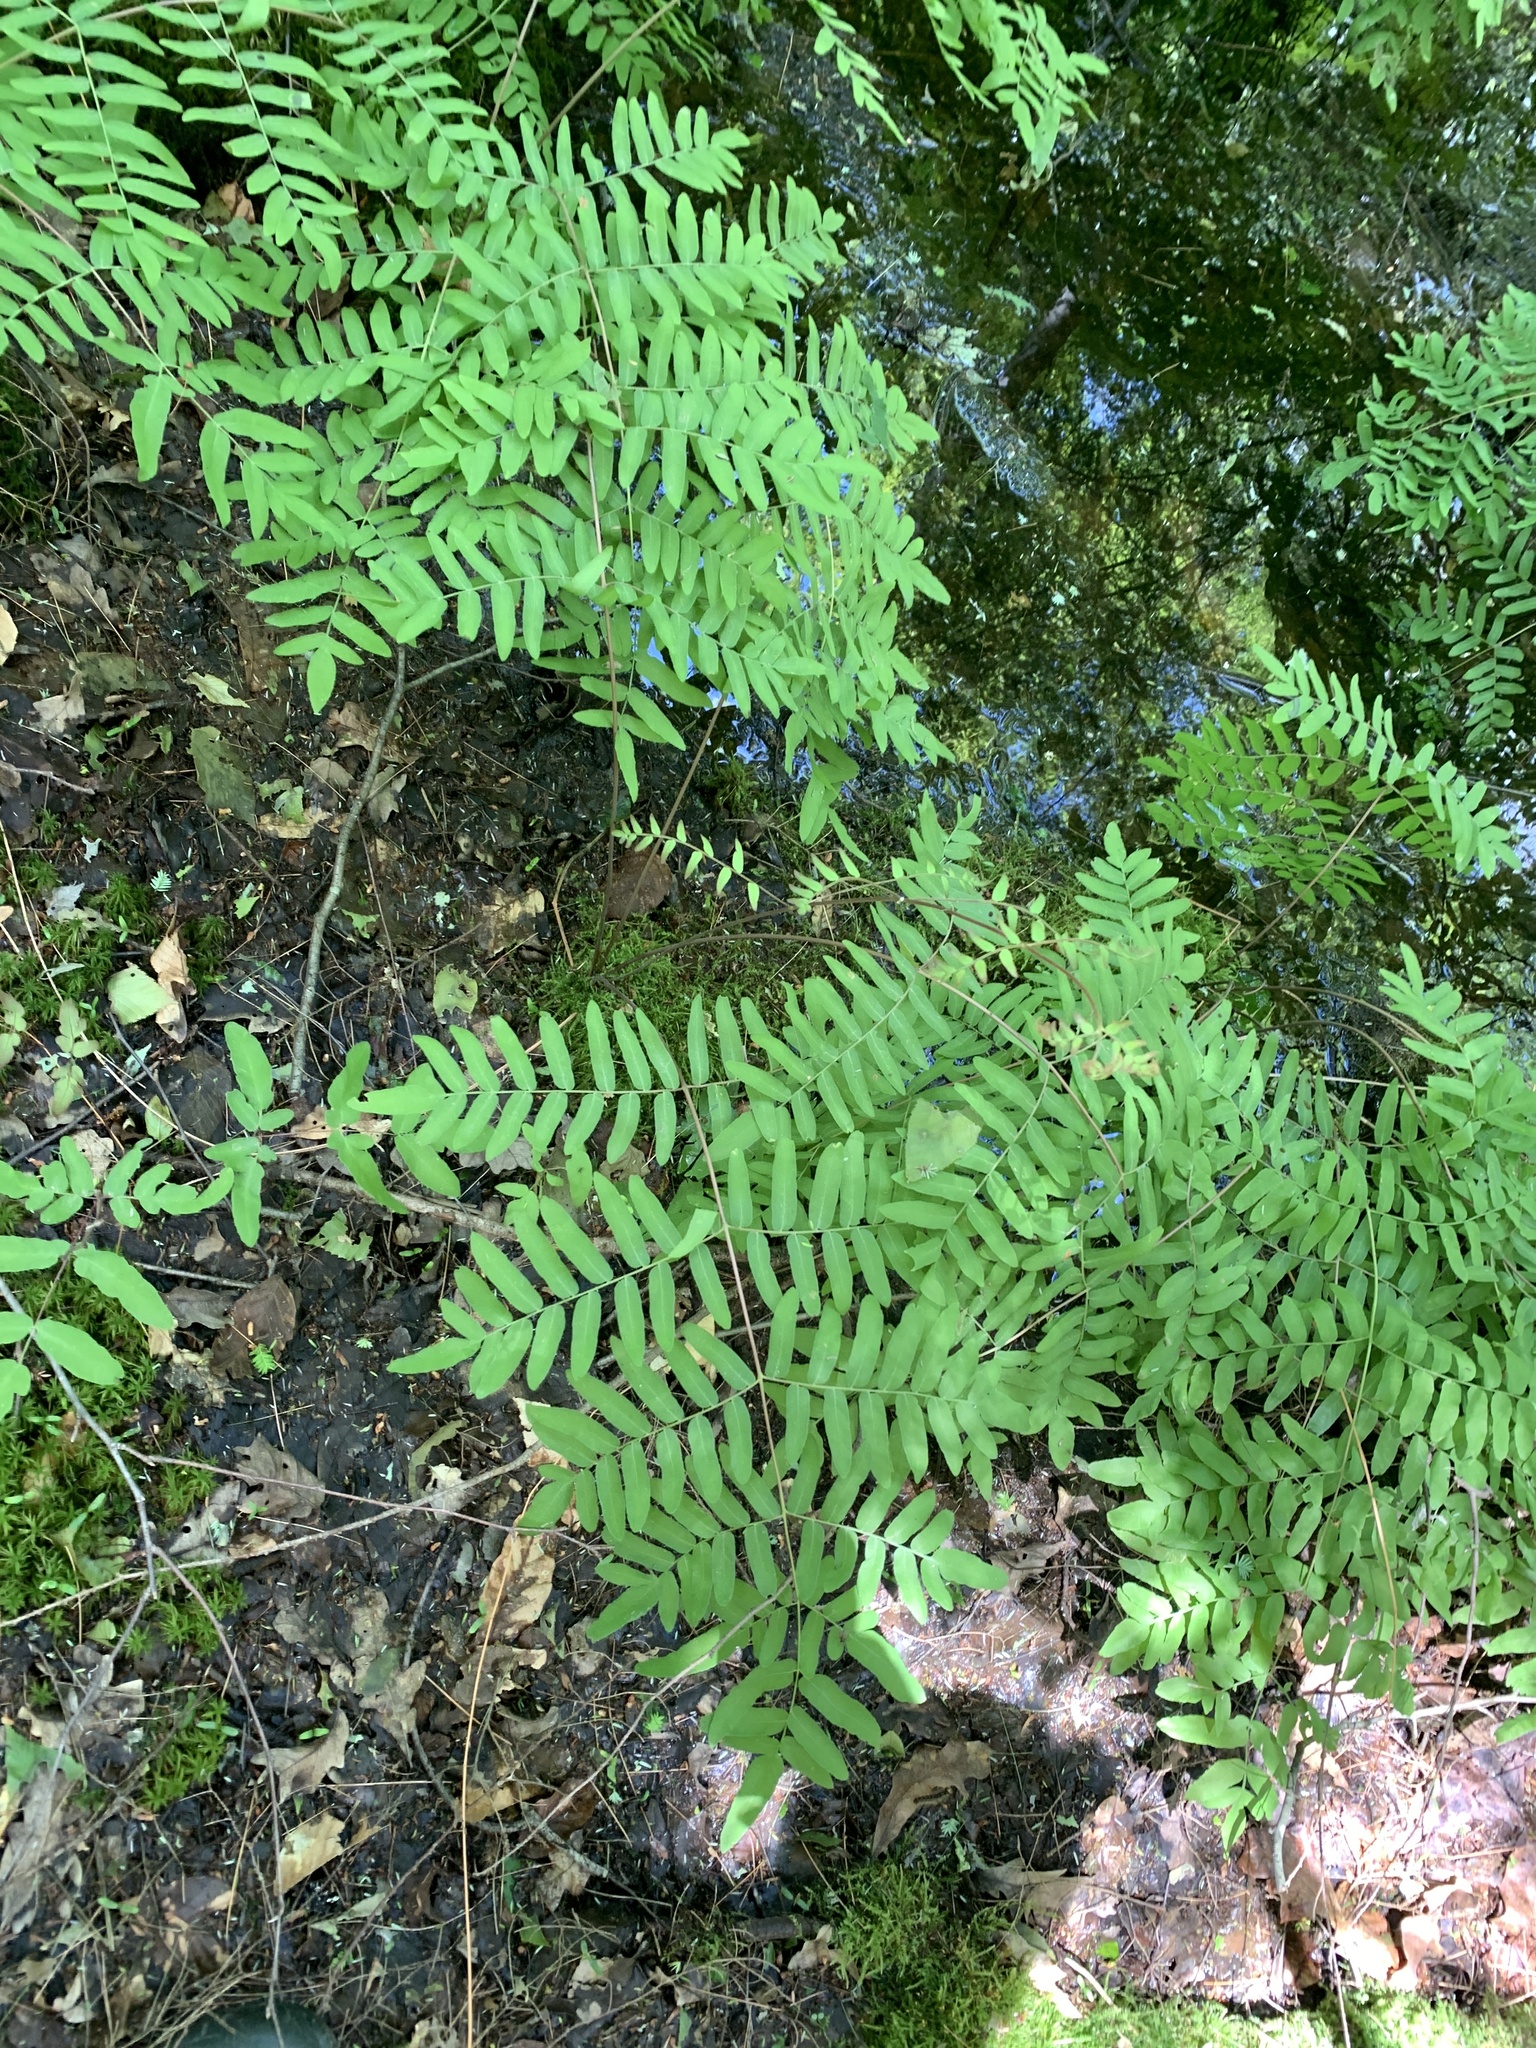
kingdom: Plantae
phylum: Tracheophyta
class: Polypodiopsida
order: Osmundales
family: Osmundaceae
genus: Osmunda
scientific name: Osmunda spectabilis
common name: American royal fern
